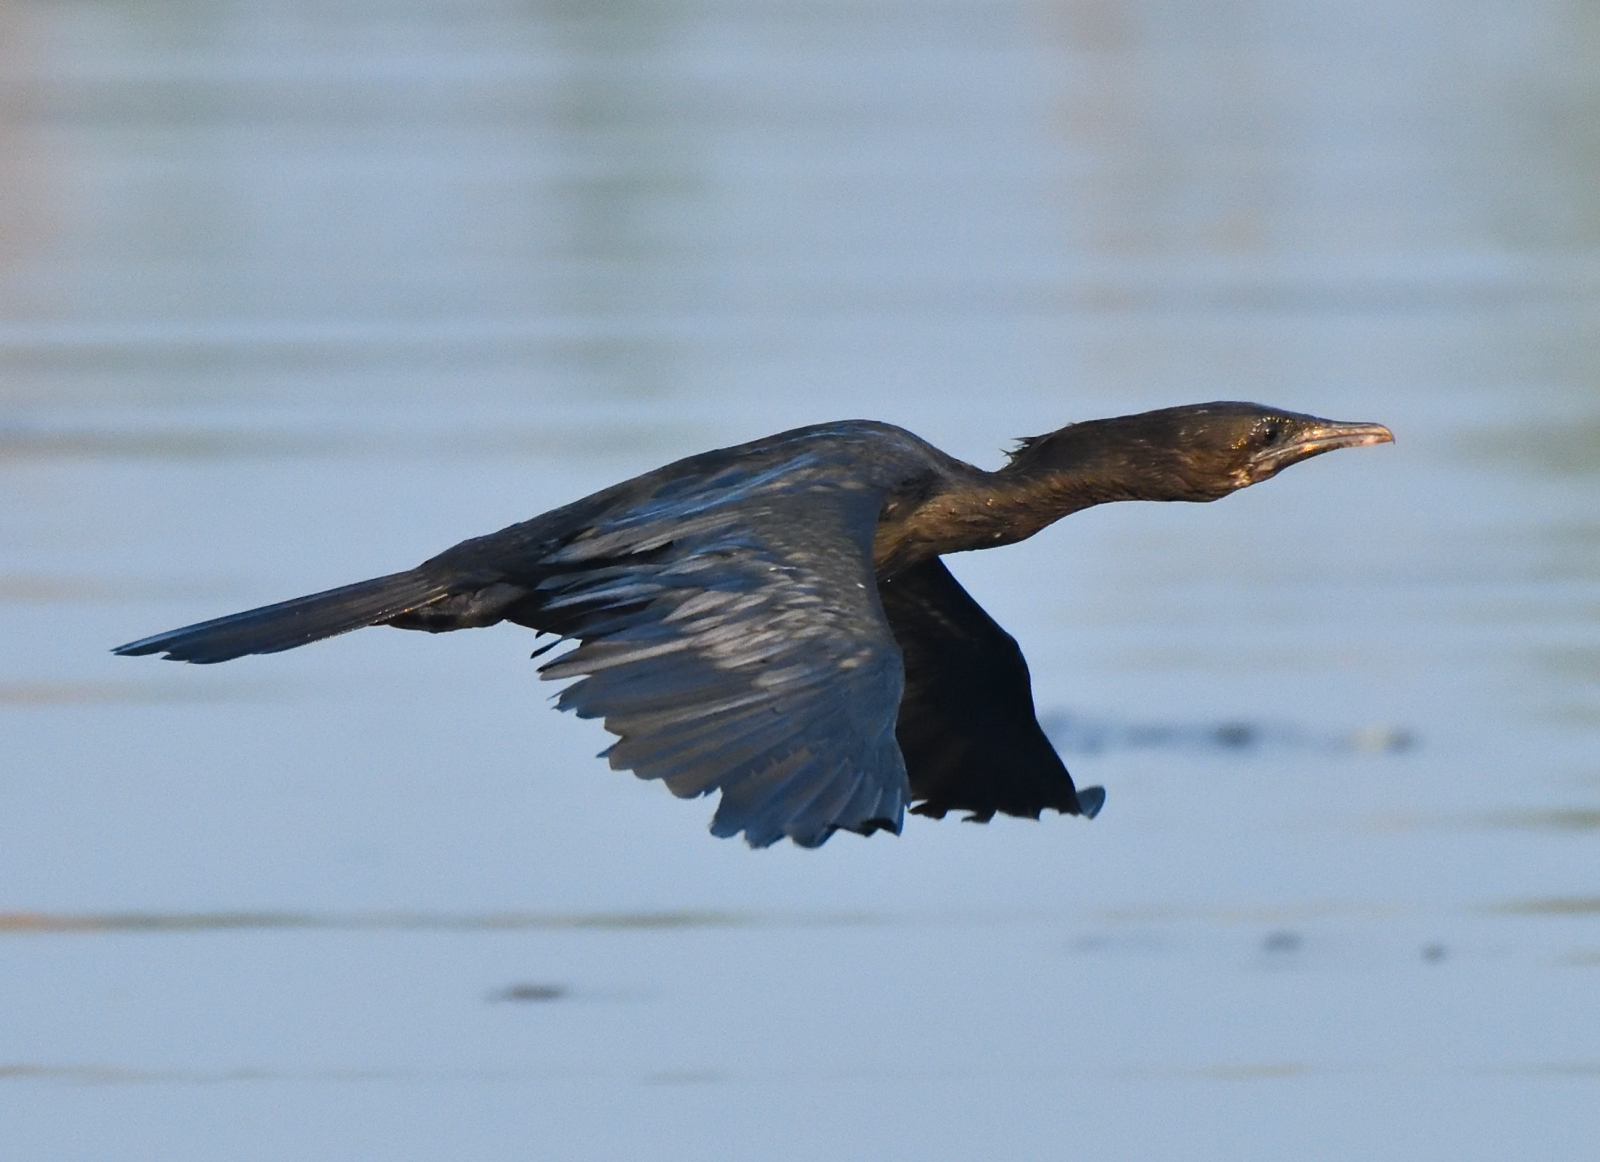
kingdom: Animalia
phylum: Chordata
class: Aves
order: Suliformes
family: Phalacrocoracidae
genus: Microcarbo
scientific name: Microcarbo niger
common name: Little cormorant
